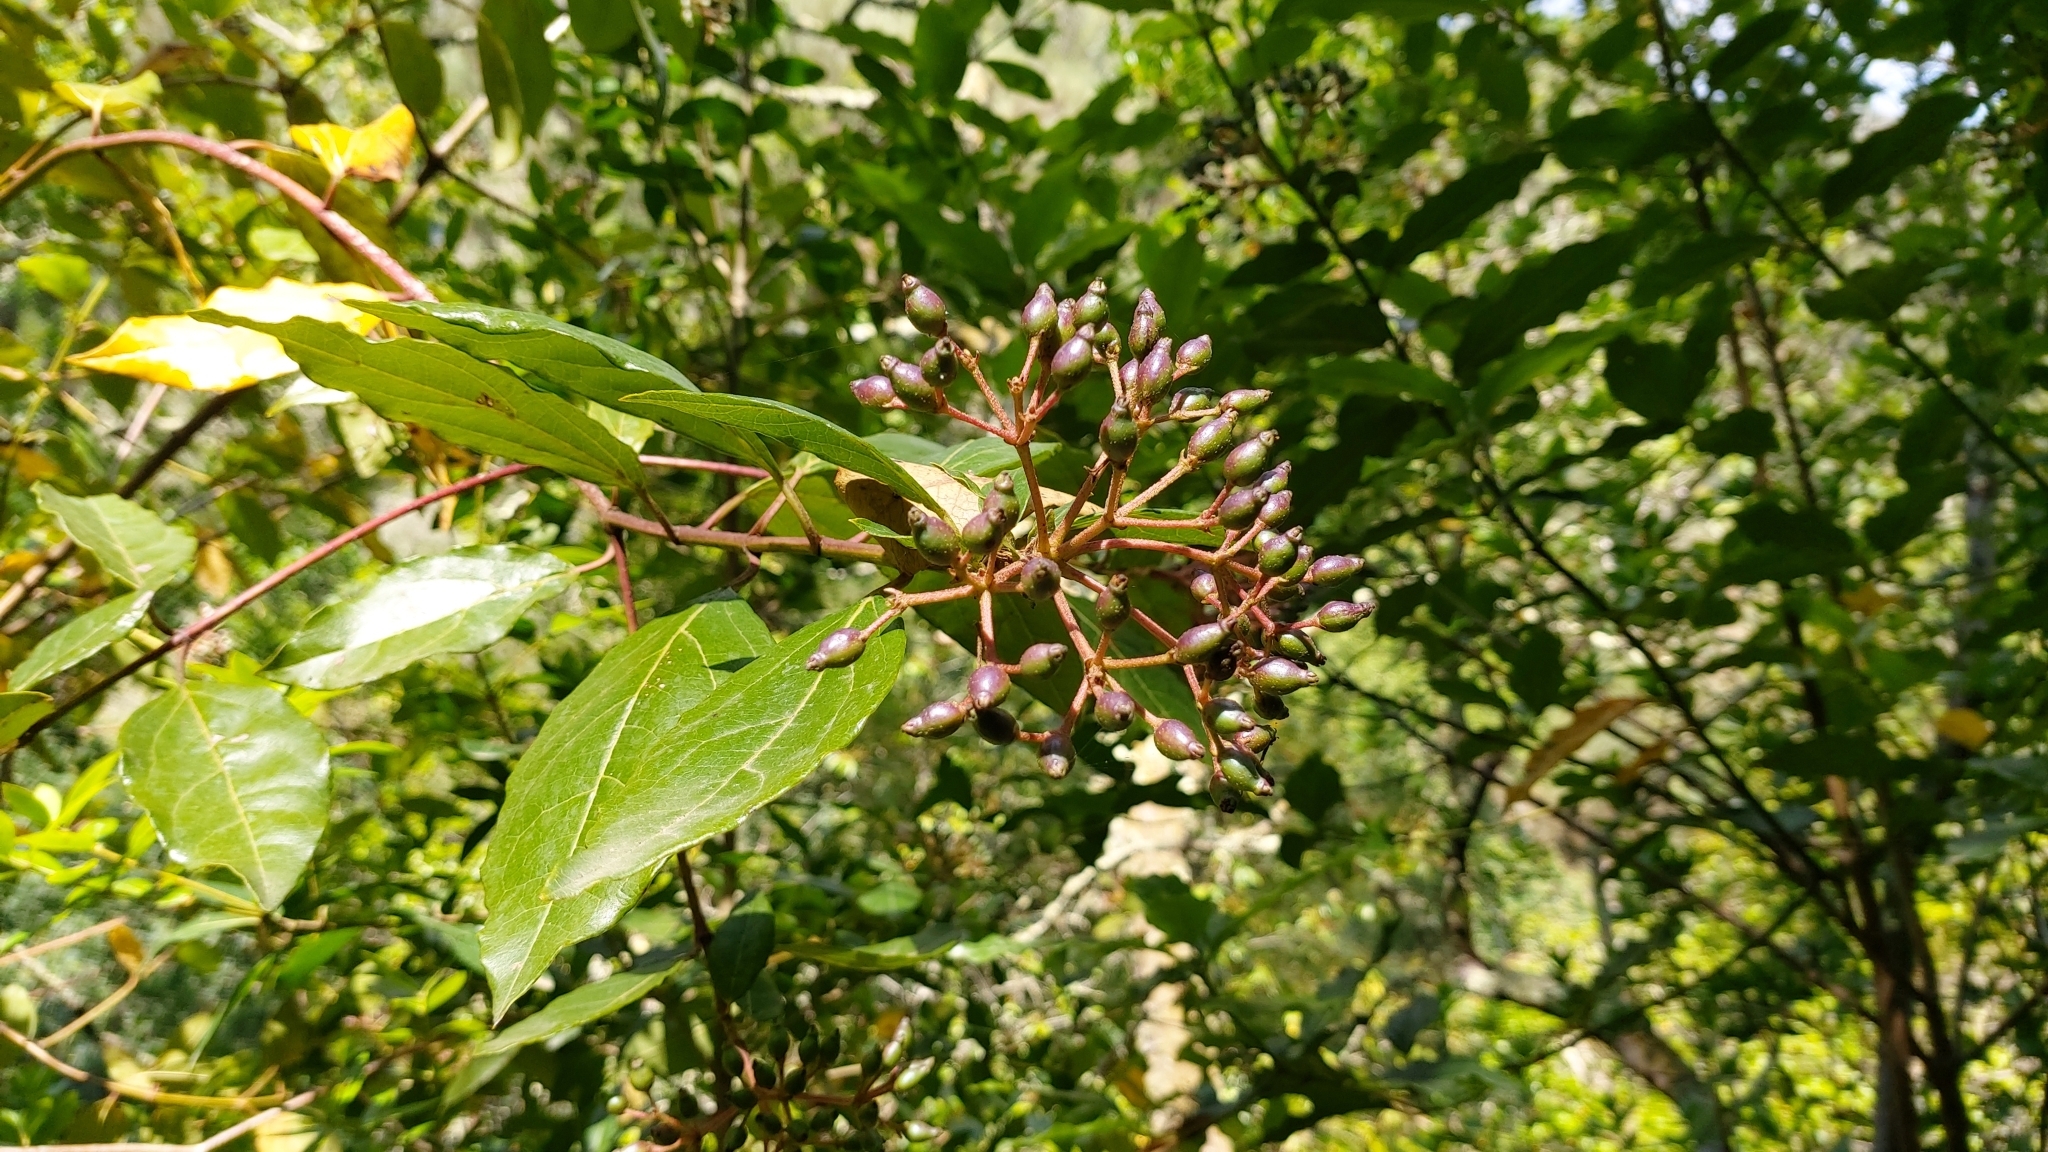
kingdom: Plantae
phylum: Tracheophyta
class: Magnoliopsida
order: Dipsacales
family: Viburnaceae
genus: Viburnum
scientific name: Viburnum tinus
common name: Laurustinus
